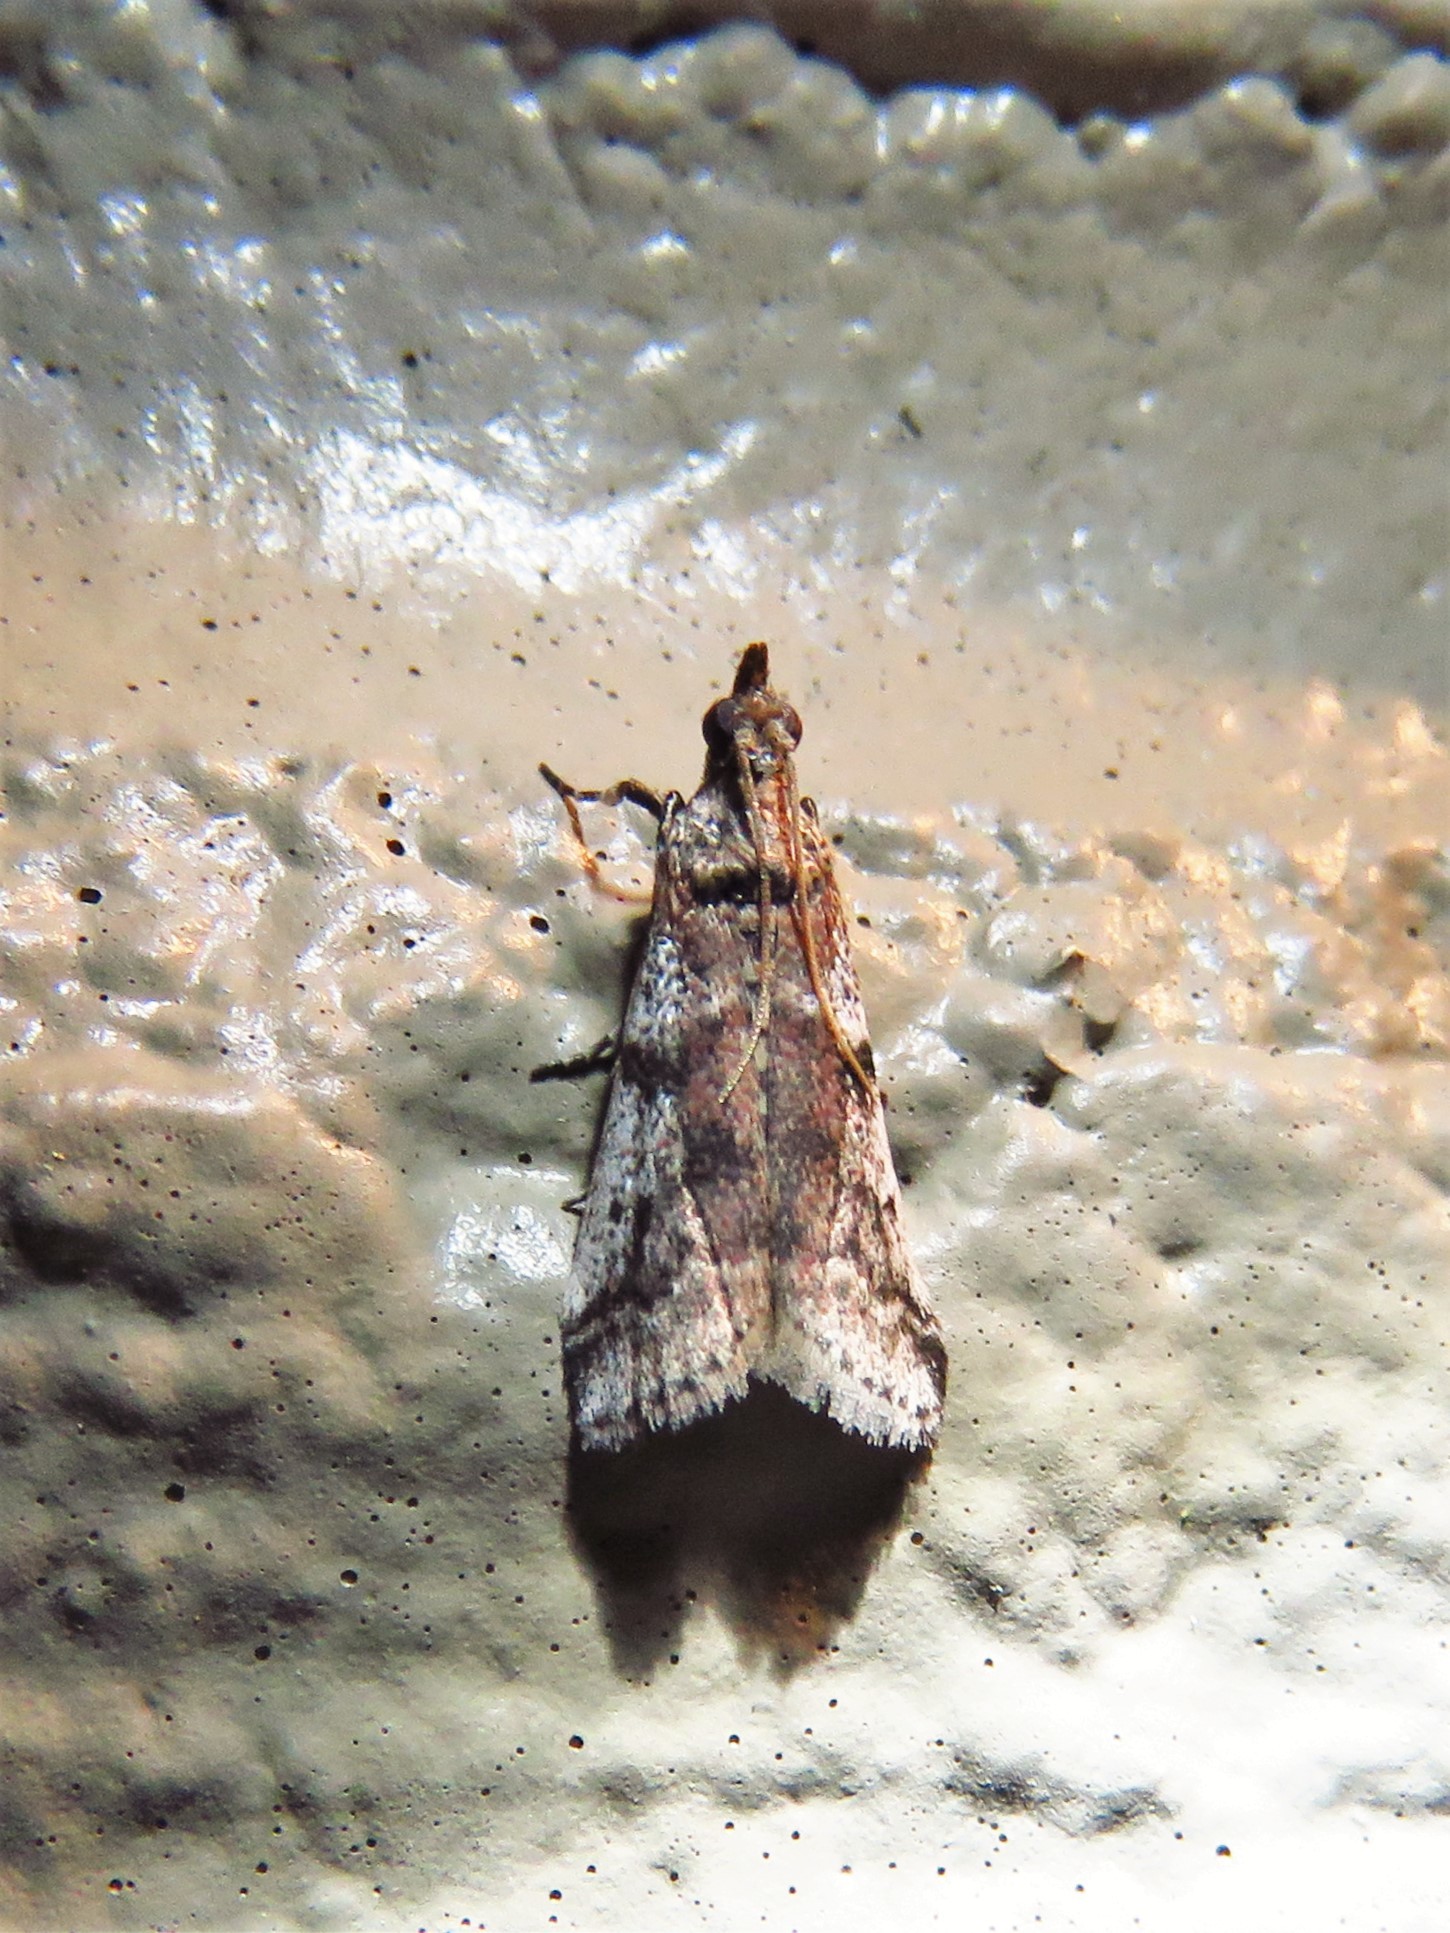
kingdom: Animalia
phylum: Arthropoda
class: Insecta
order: Lepidoptera
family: Pyralidae
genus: Laetilia
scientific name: Laetilia coccidivora
